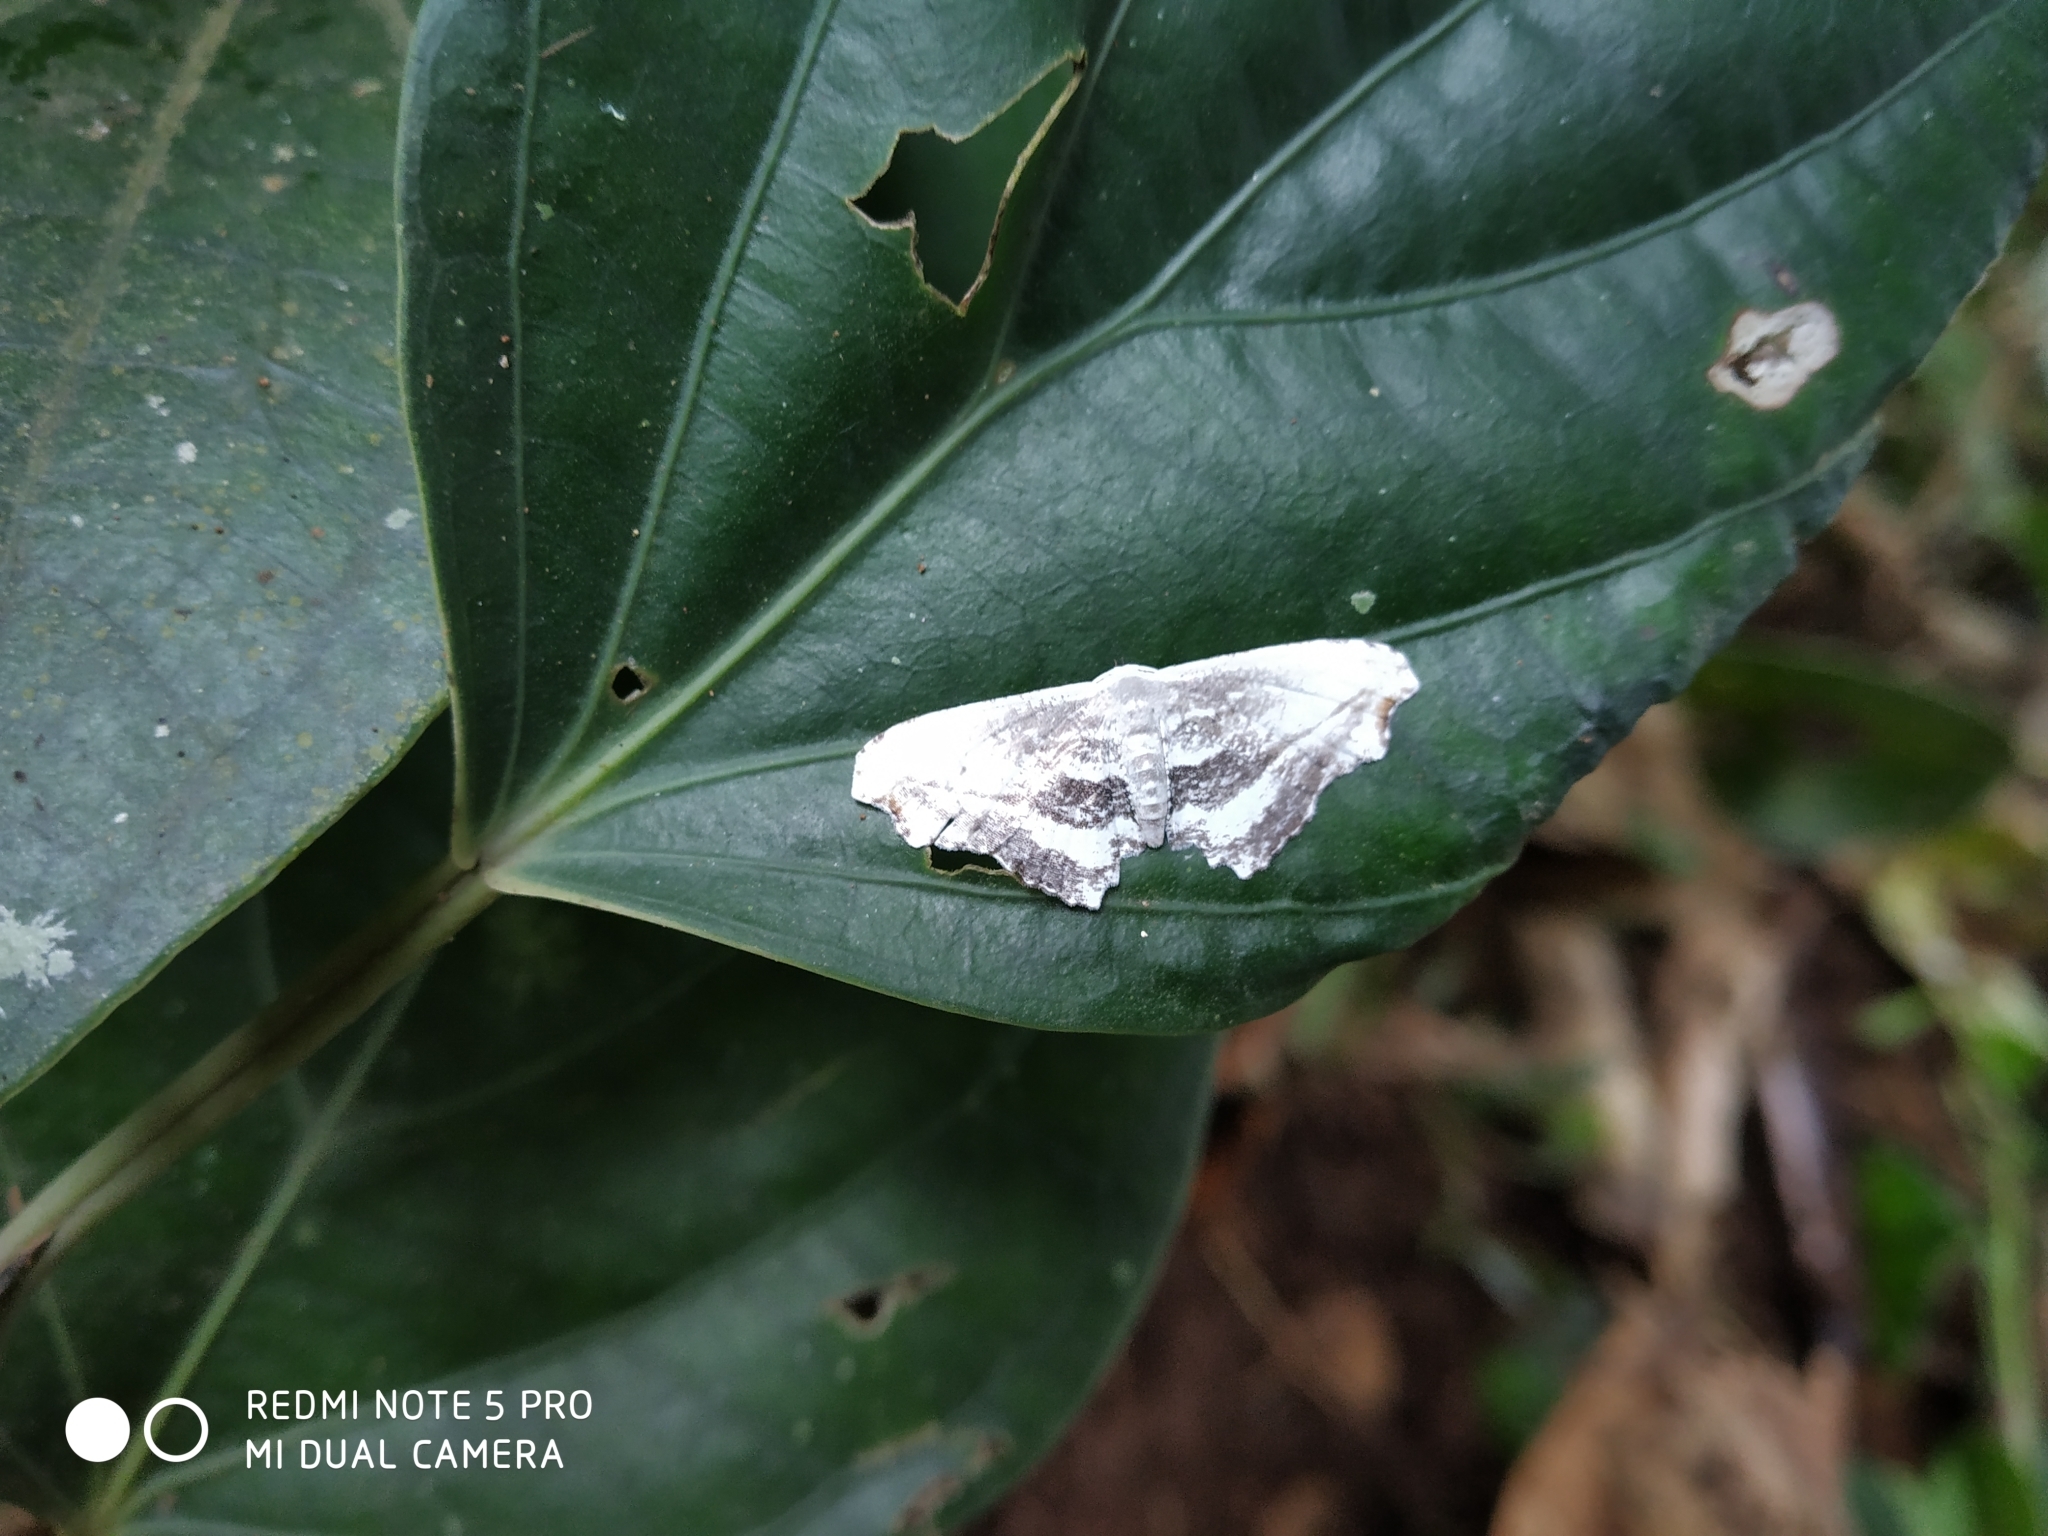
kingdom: Animalia
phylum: Arthropoda
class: Insecta
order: Lepidoptera
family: Uraniidae
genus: Rhombophylla
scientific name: Rhombophylla edentata
